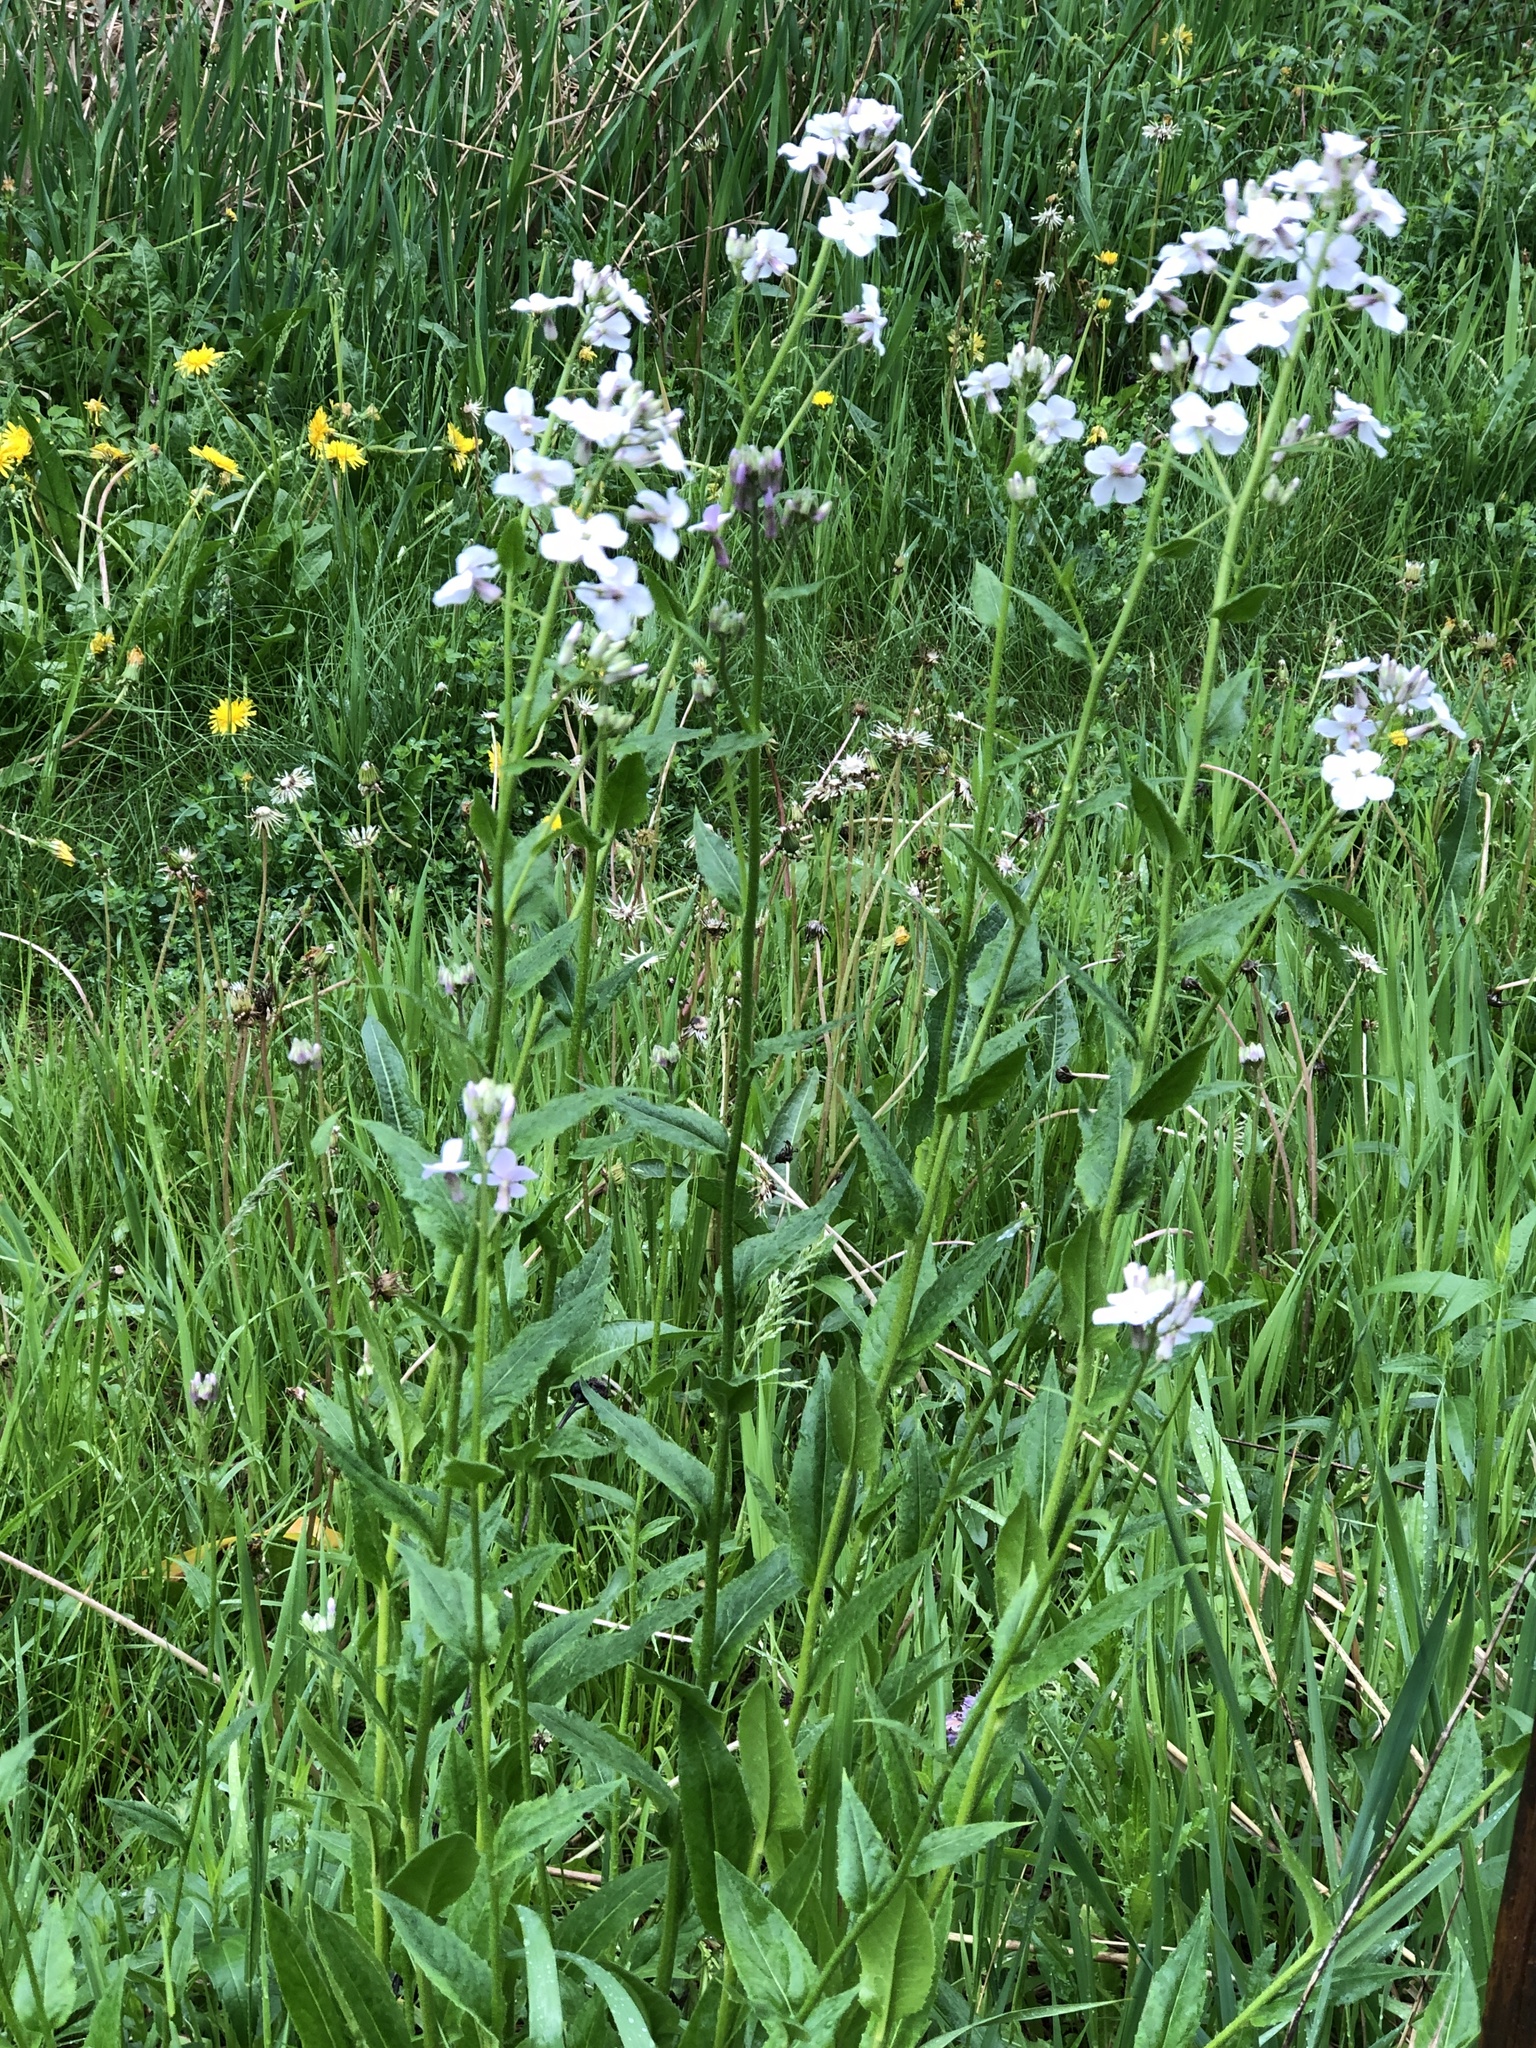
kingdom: Plantae
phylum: Tracheophyta
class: Magnoliopsida
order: Brassicales
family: Brassicaceae
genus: Hesperis
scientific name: Hesperis matronalis
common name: Dame's-violet
